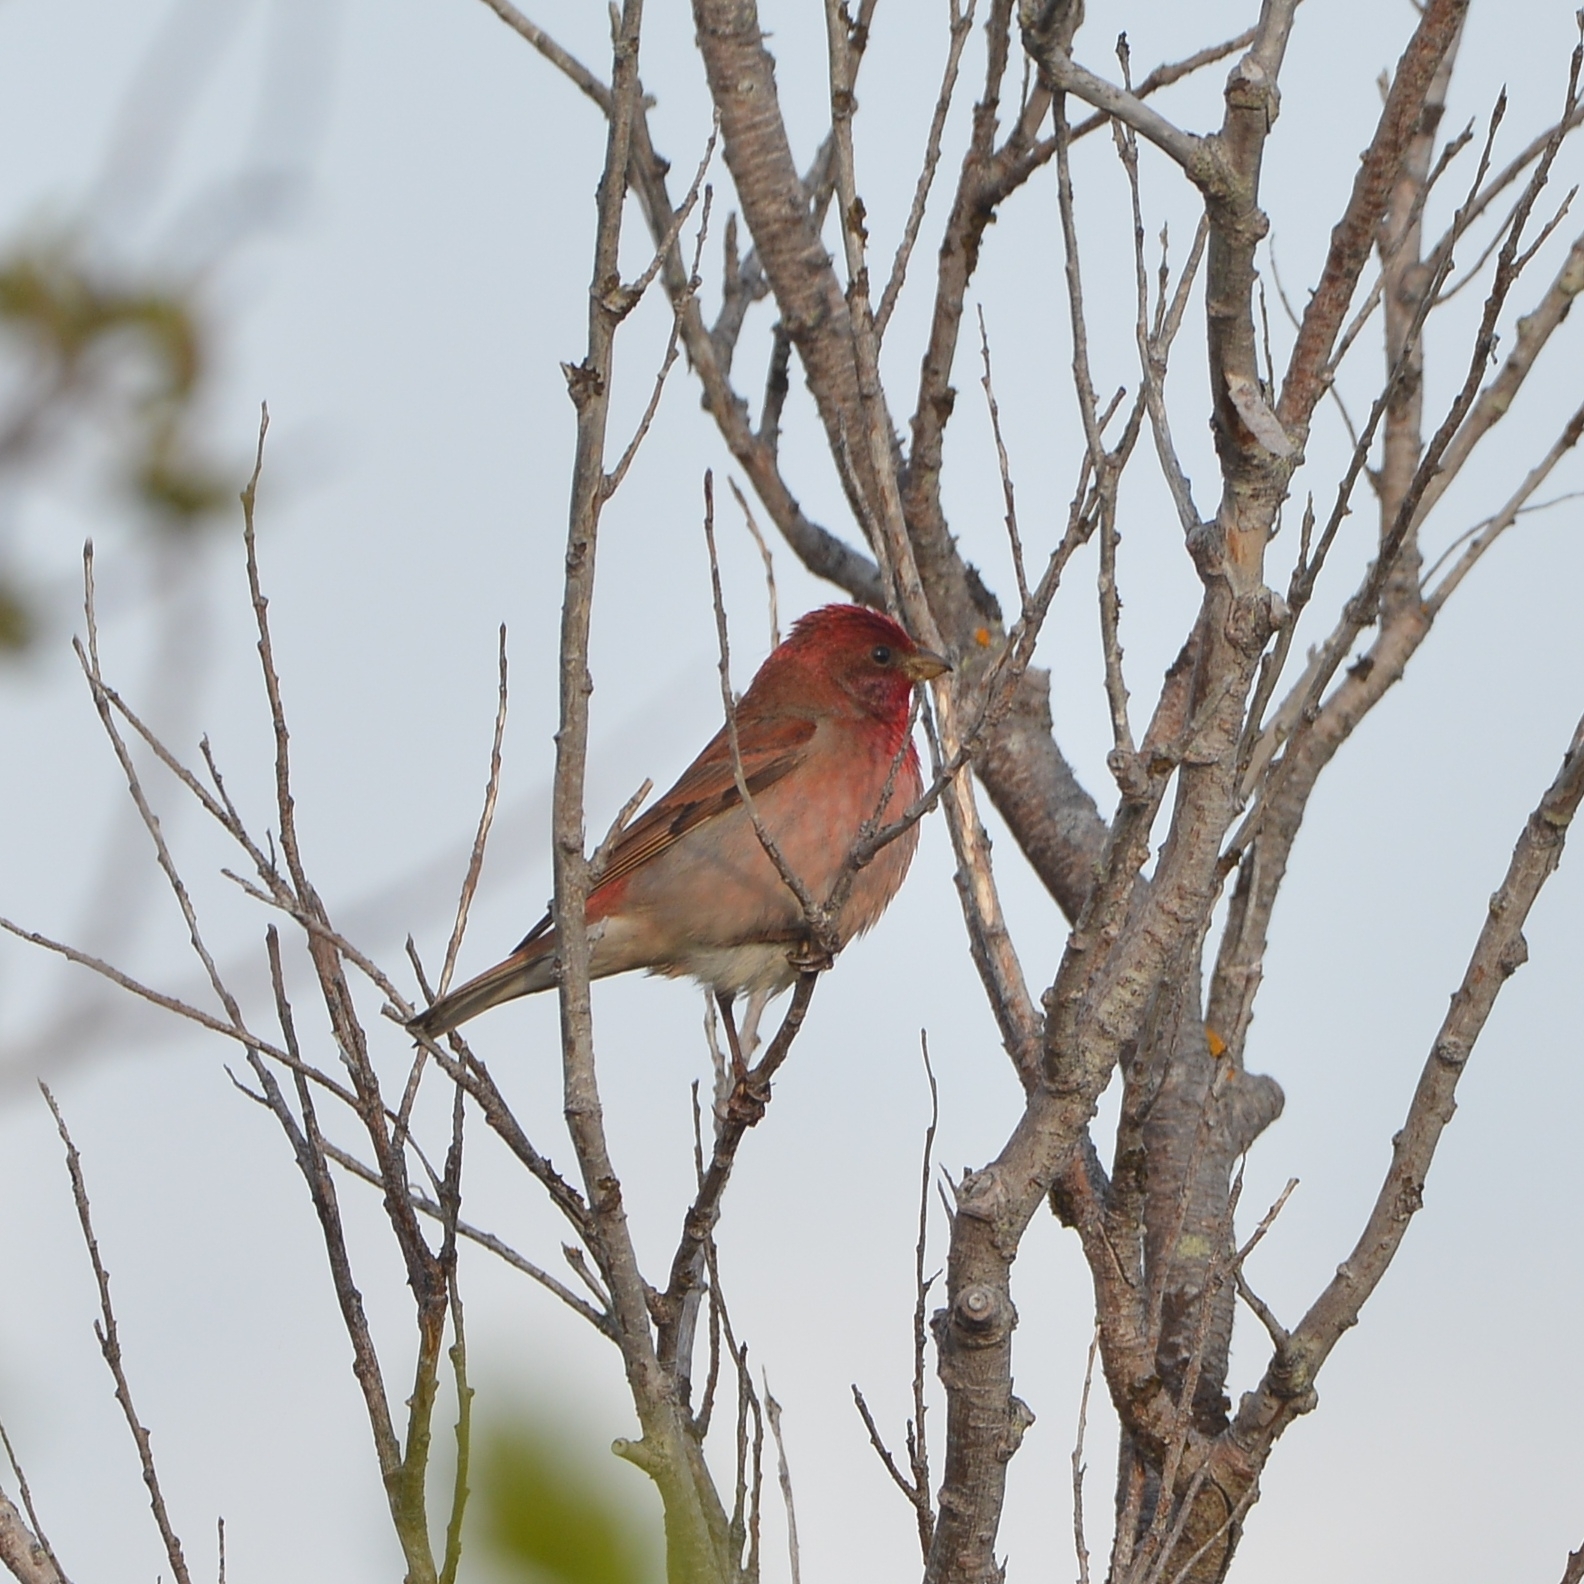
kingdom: Animalia
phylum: Chordata
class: Aves
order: Passeriformes
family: Fringillidae
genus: Carpodacus
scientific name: Carpodacus erythrinus
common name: Common rosefinch
